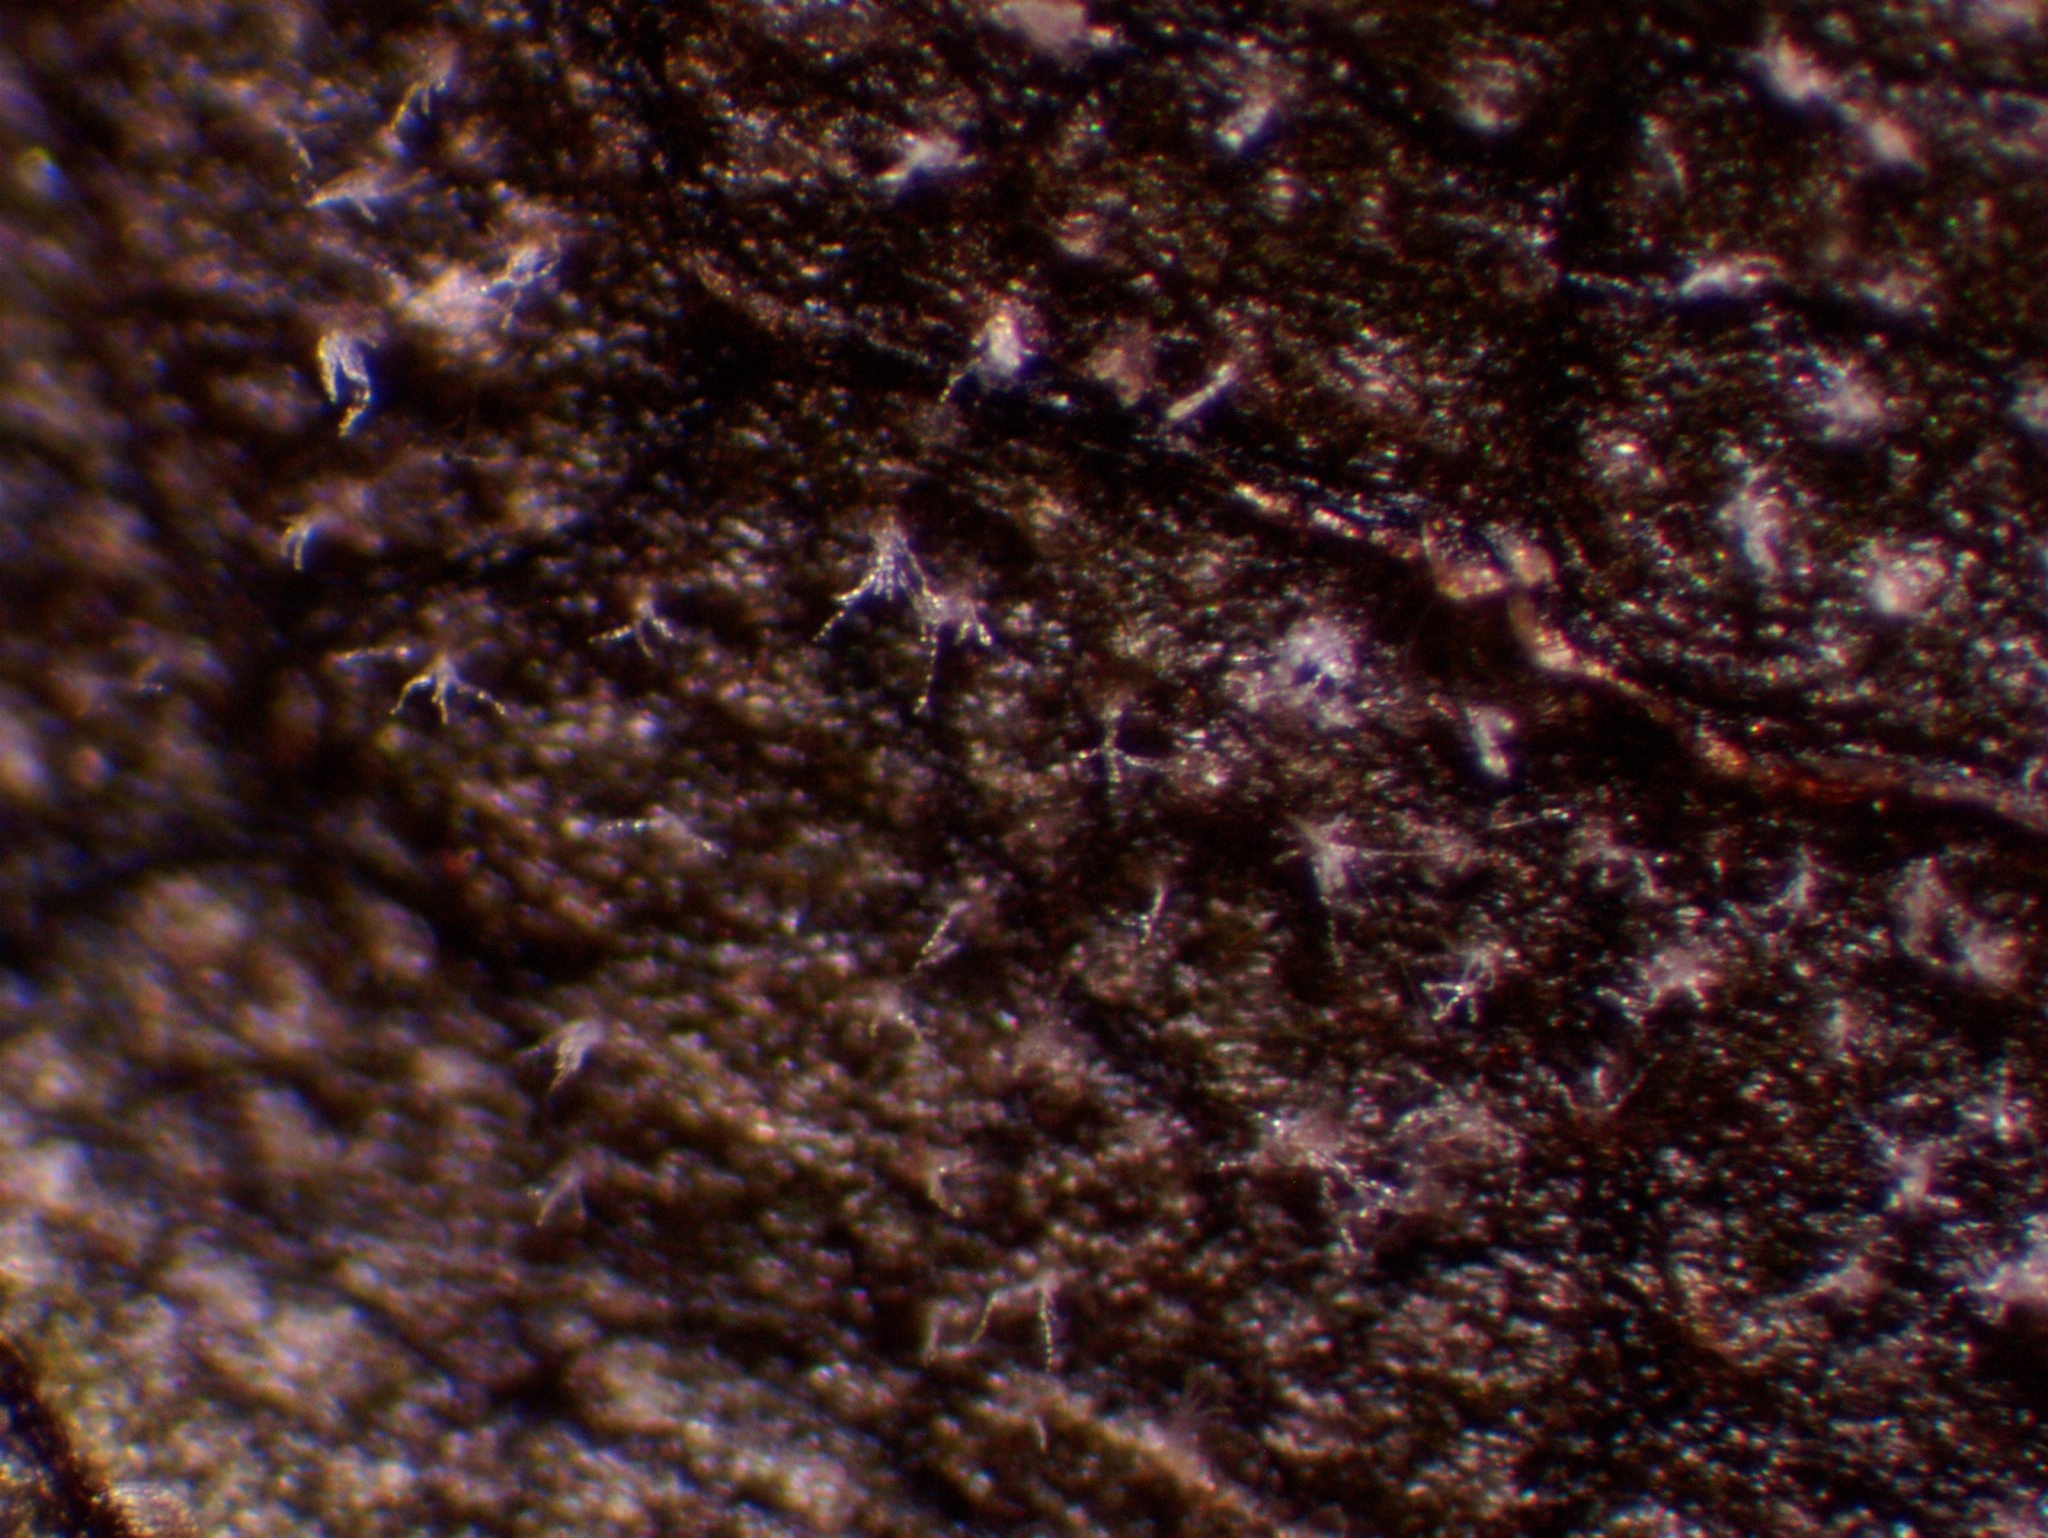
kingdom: Fungi
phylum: Ascomycota
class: Dothideomycetes
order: Mycosphaerellales
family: Mycosphaerellaceae
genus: Ramularia
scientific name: Ramularia rubella
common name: Red dock spot
